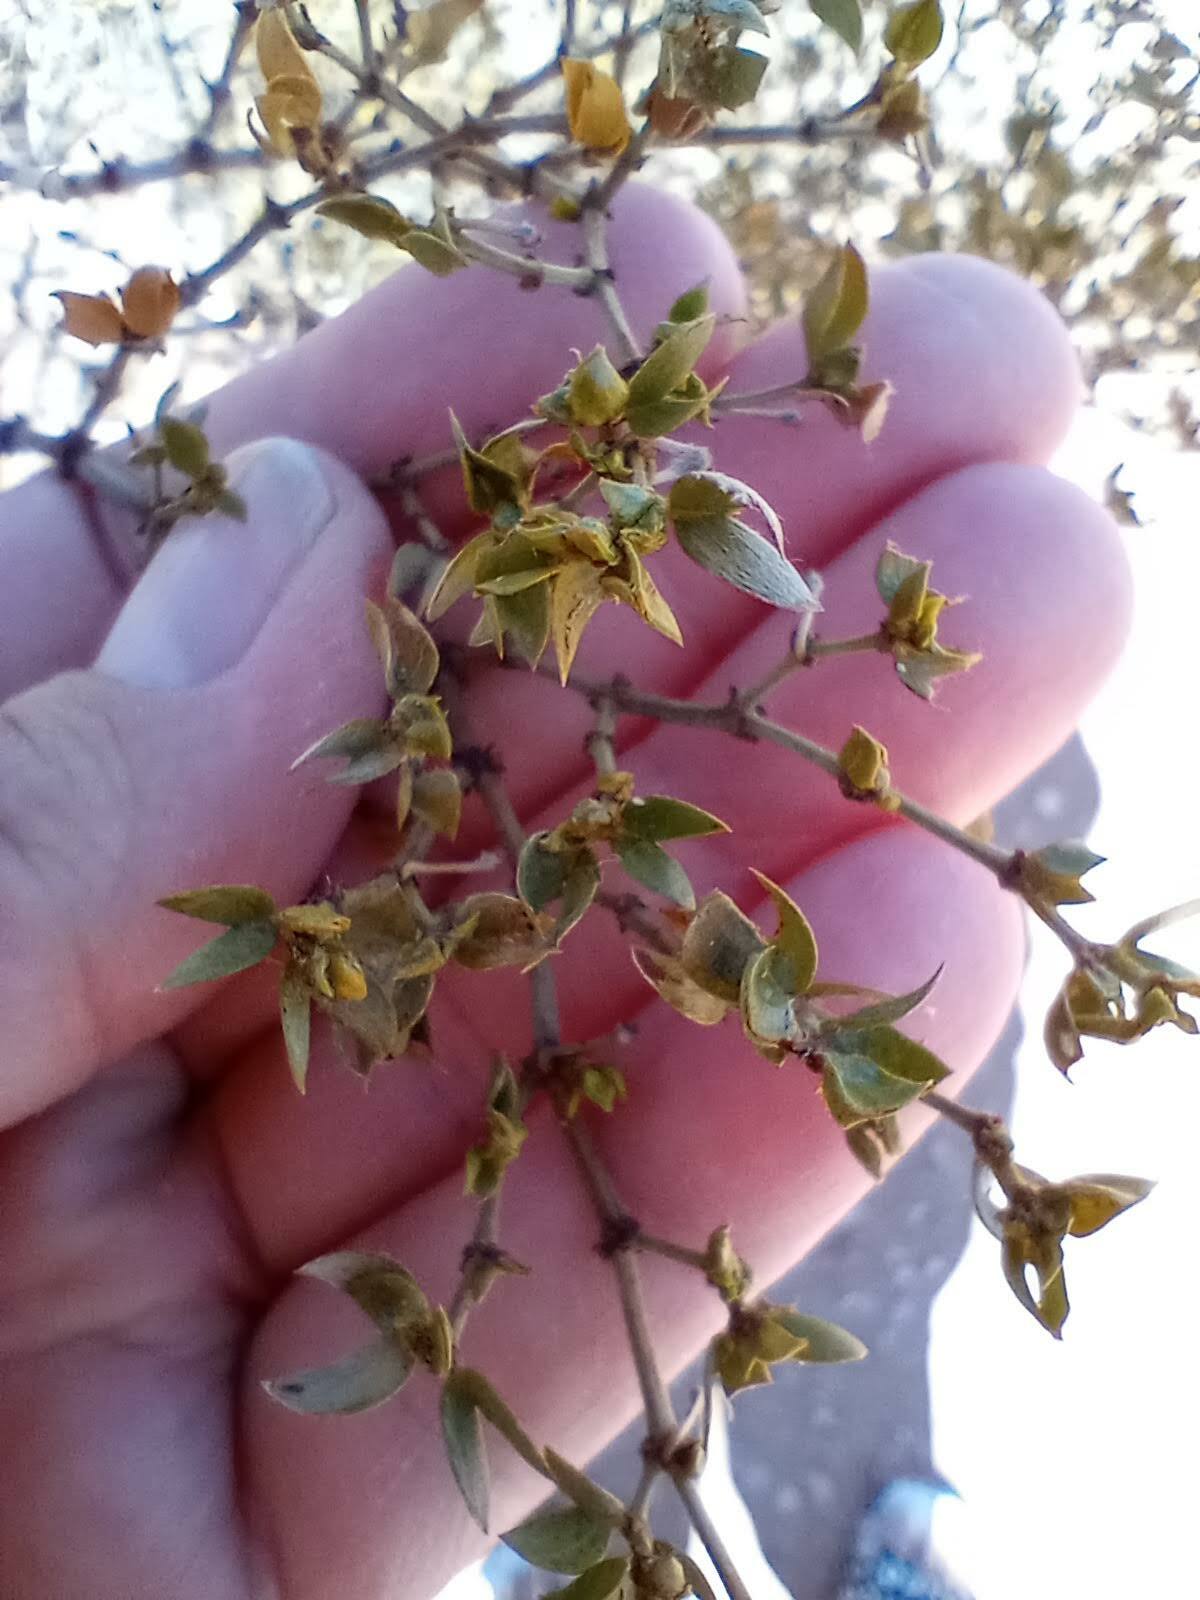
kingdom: Plantae
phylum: Tracheophyta
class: Magnoliopsida
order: Zygophyllales
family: Zygophyllaceae
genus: Larrea
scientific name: Larrea tridentata
